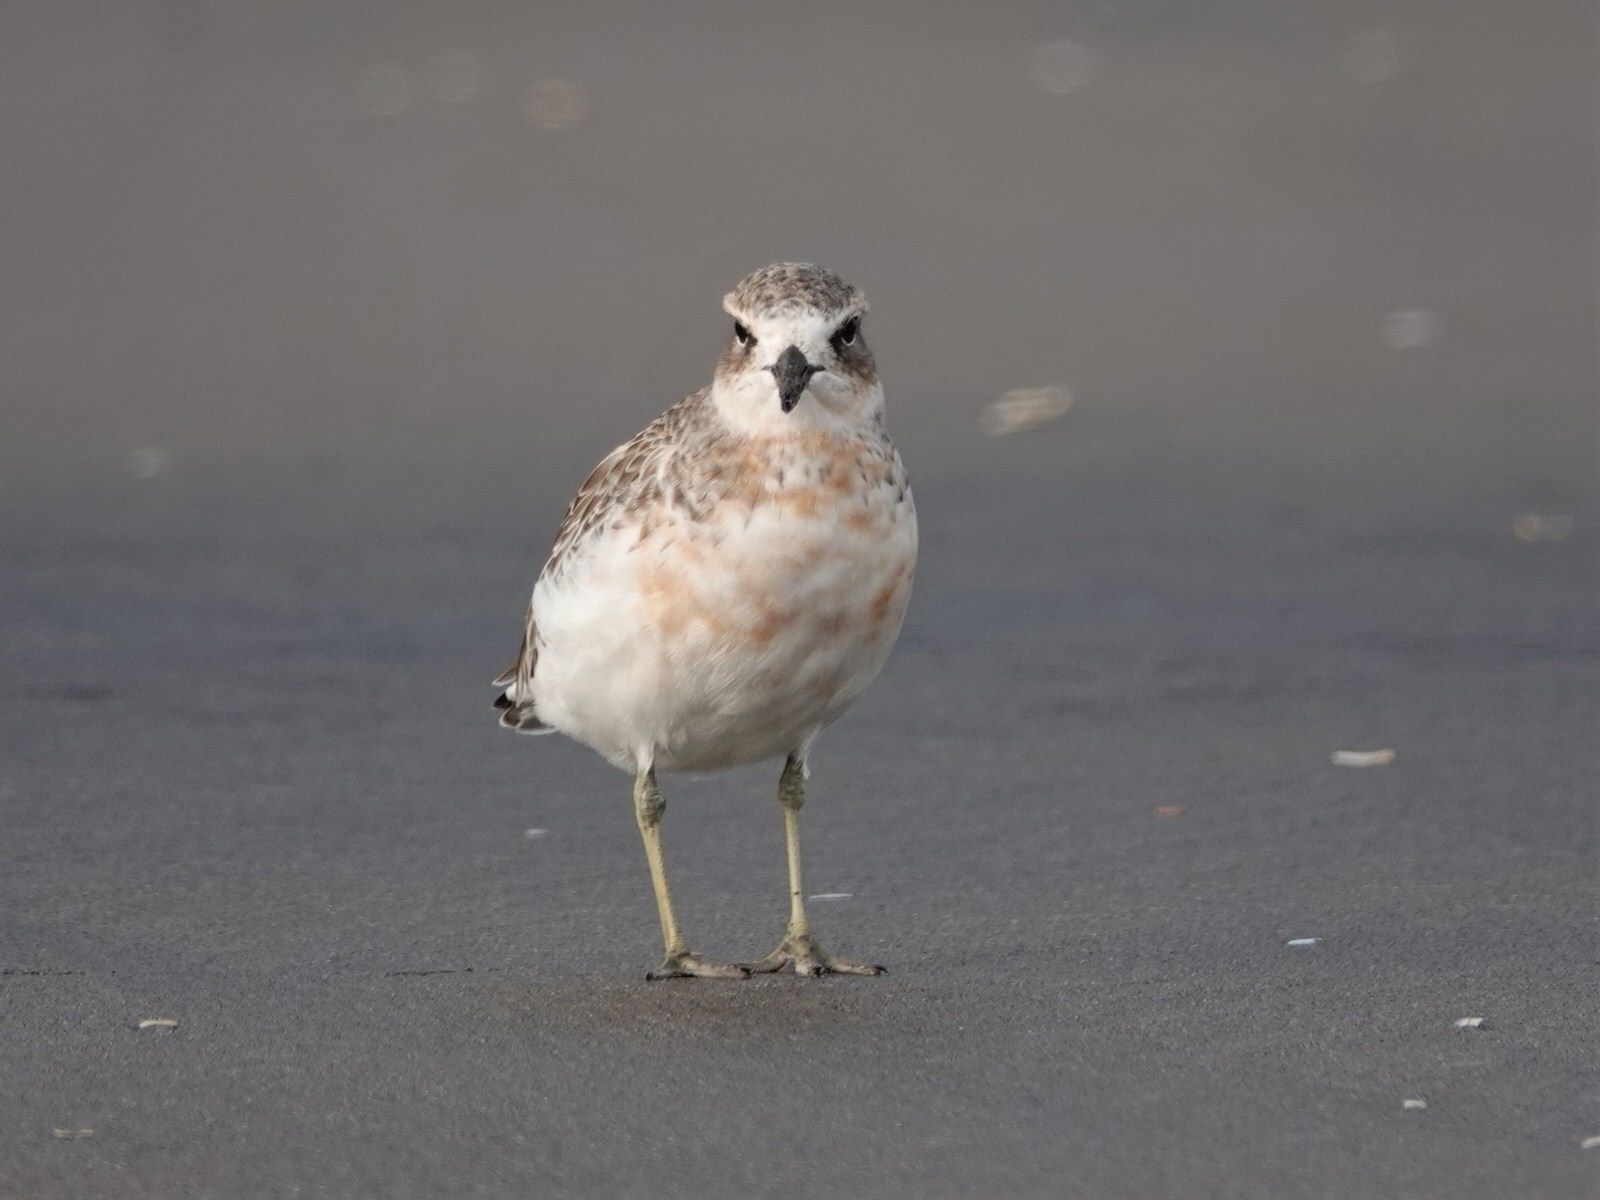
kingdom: Animalia
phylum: Chordata
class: Aves
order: Charadriiformes
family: Charadriidae
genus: Anarhynchus
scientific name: Anarhynchus
